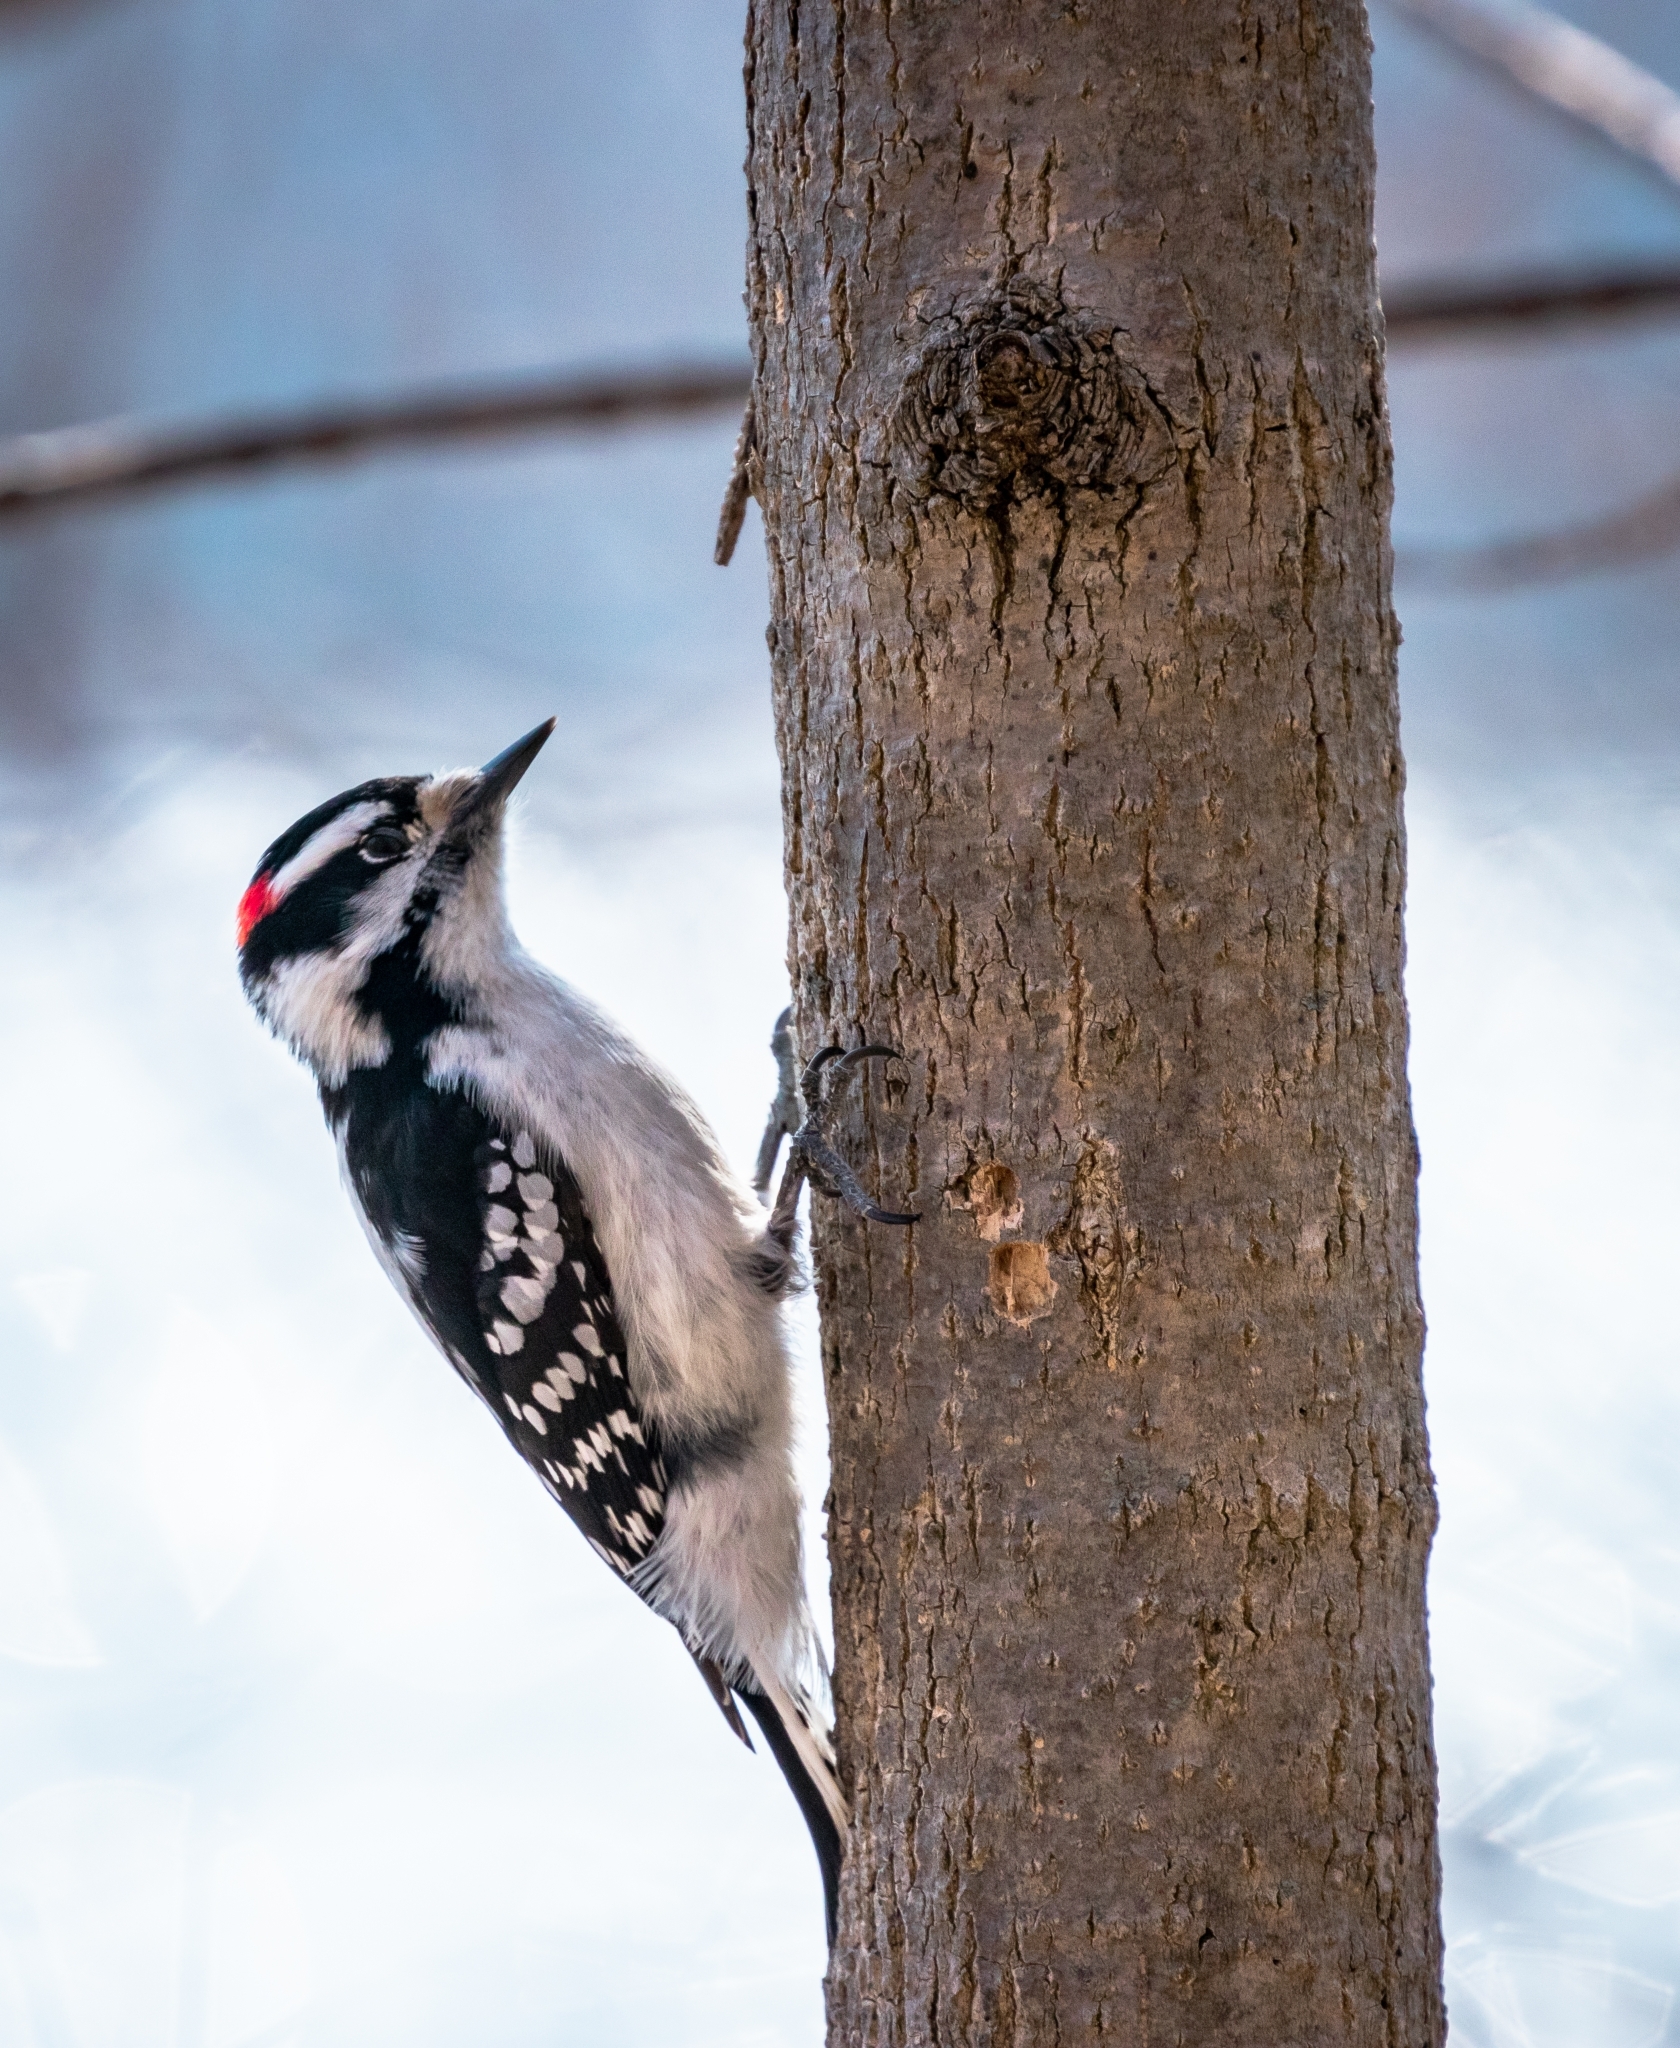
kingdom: Animalia
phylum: Chordata
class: Aves
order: Piciformes
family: Picidae
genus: Dryobates
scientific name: Dryobates pubescens
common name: Downy woodpecker
